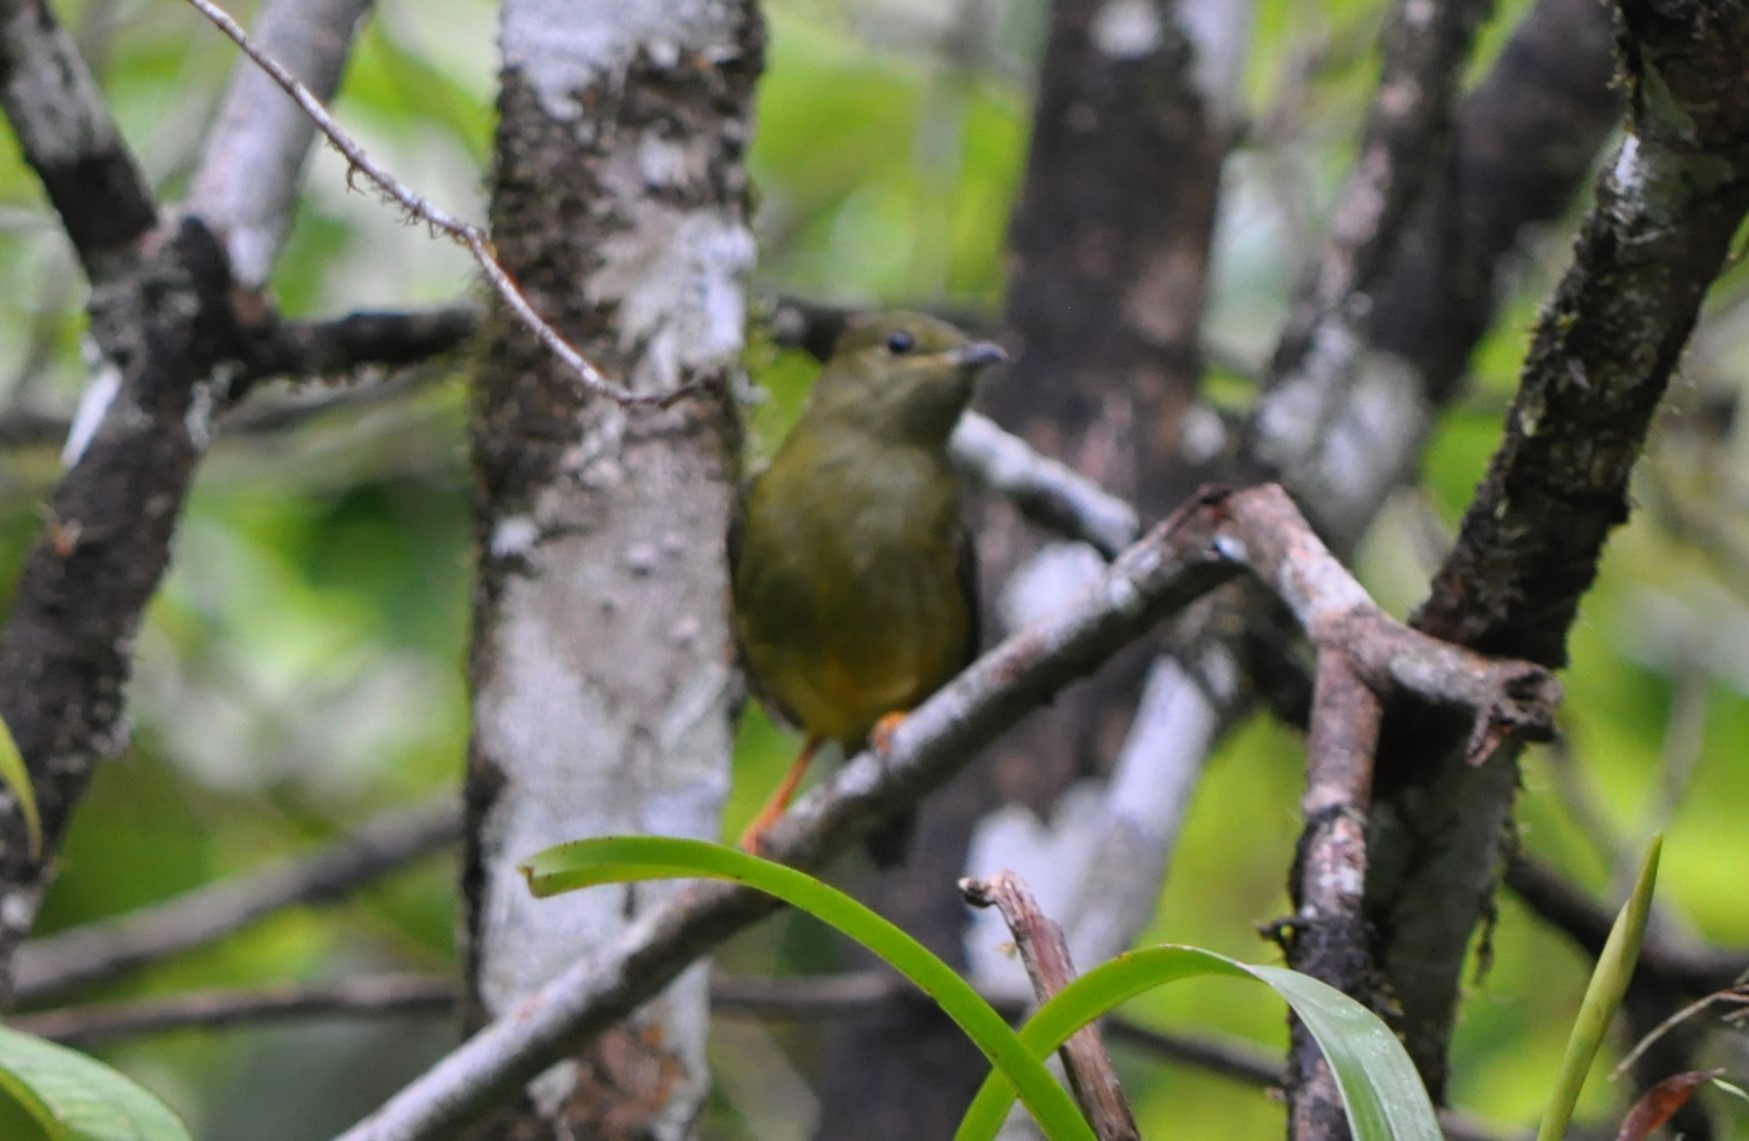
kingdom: Animalia
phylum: Chordata
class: Aves
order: Passeriformes
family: Pipridae
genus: Manacus
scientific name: Manacus candei
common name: White-collared manakin
